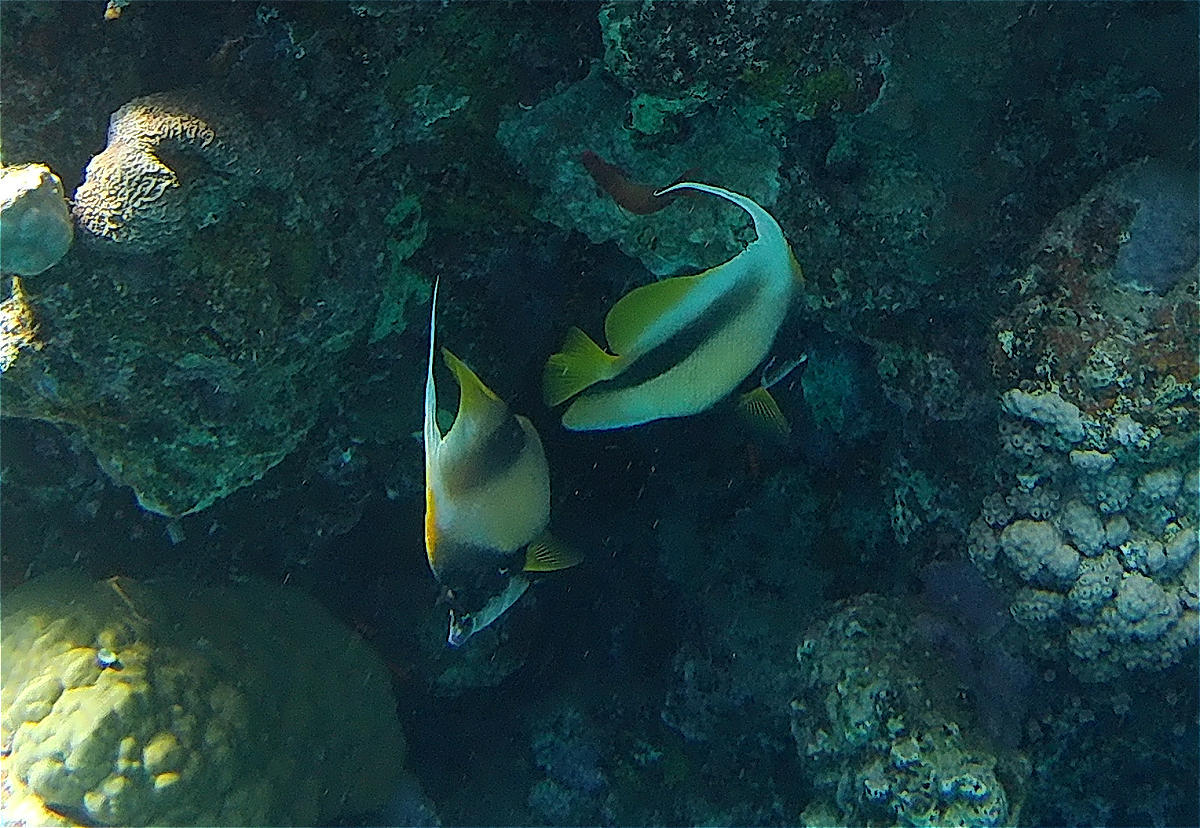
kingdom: Animalia
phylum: Chordata
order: Perciformes
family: Chaetodontidae
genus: Heniochus
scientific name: Heniochus intermedius
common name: Red sea bannerfish
